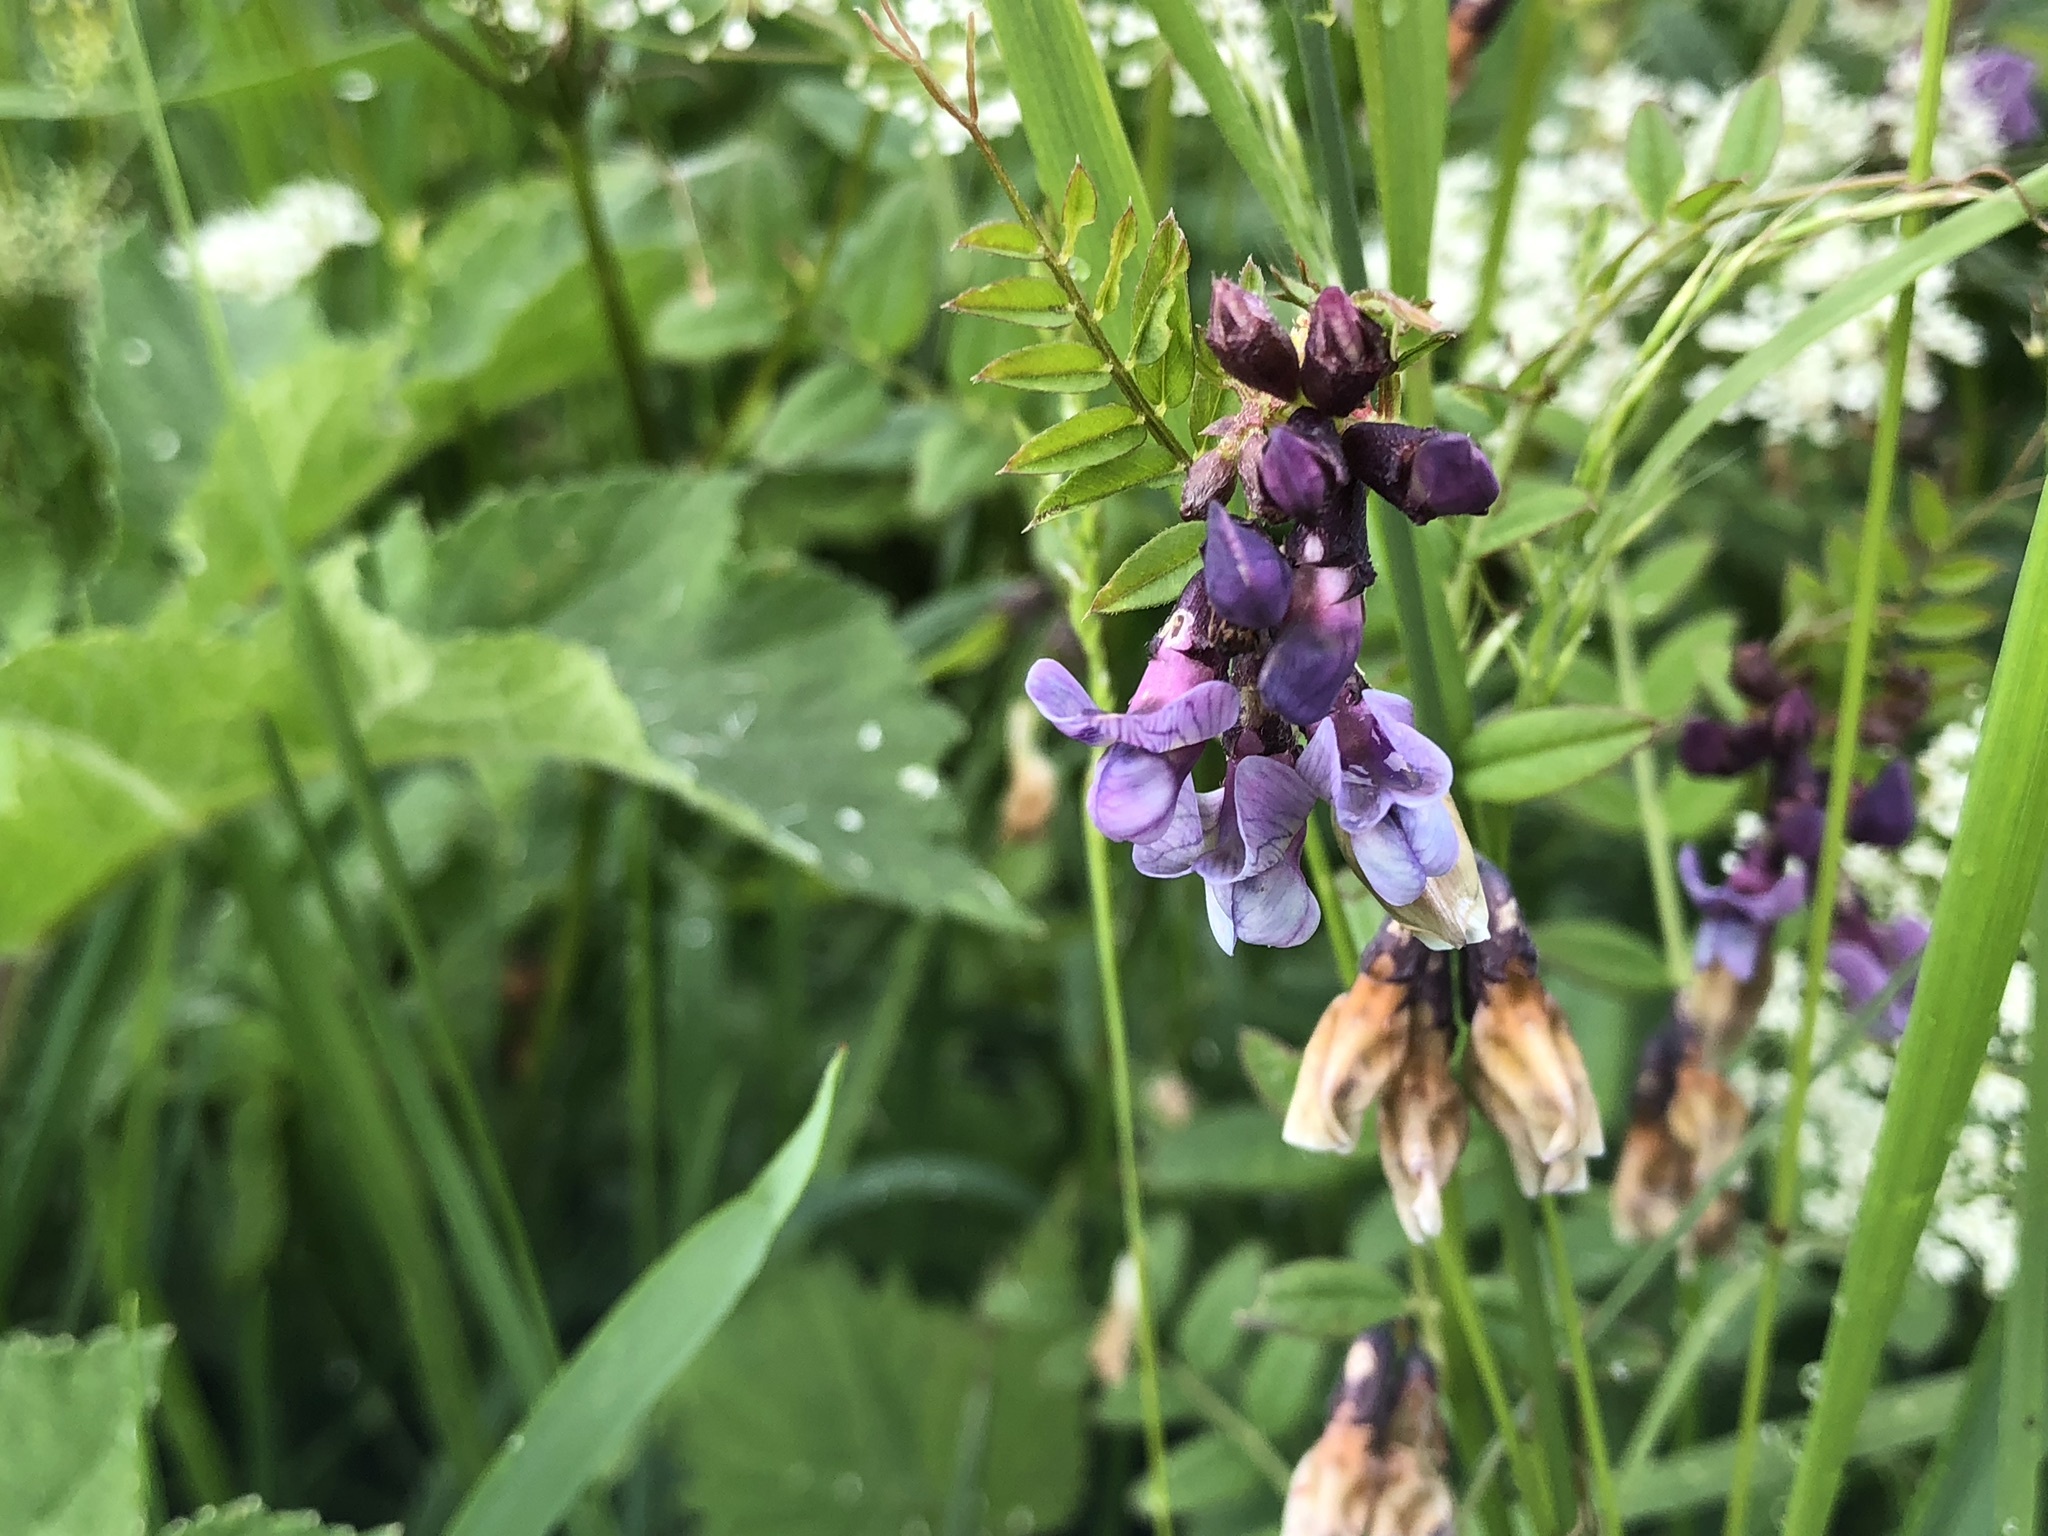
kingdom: Plantae
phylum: Tracheophyta
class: Magnoliopsida
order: Fabales
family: Fabaceae
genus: Vicia
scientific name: Vicia sepium
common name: Bush vetch
